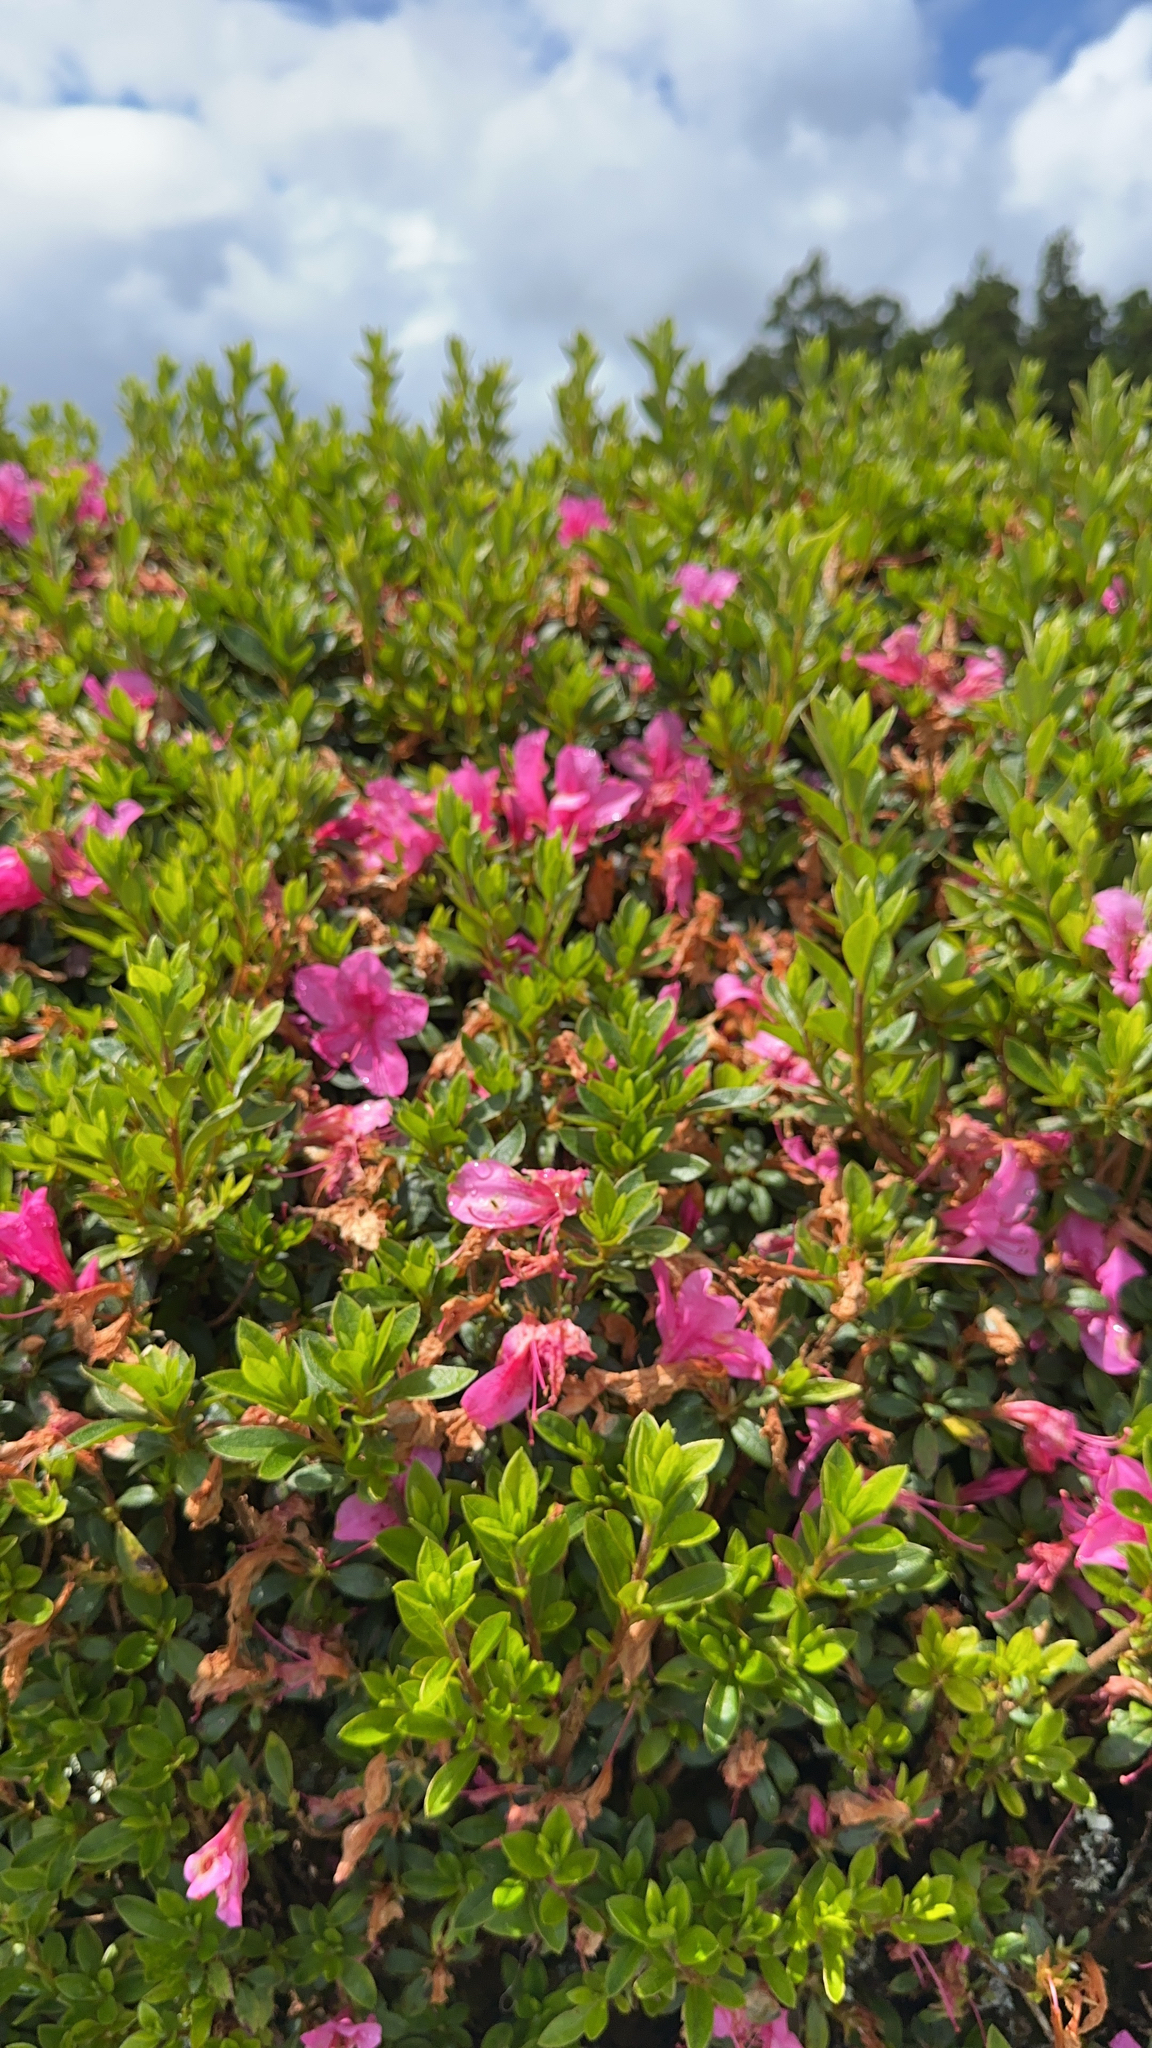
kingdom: Plantae
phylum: Tracheophyta
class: Magnoliopsida
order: Ericales
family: Ericaceae
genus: Rhododendron
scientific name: Rhododendron indicum
